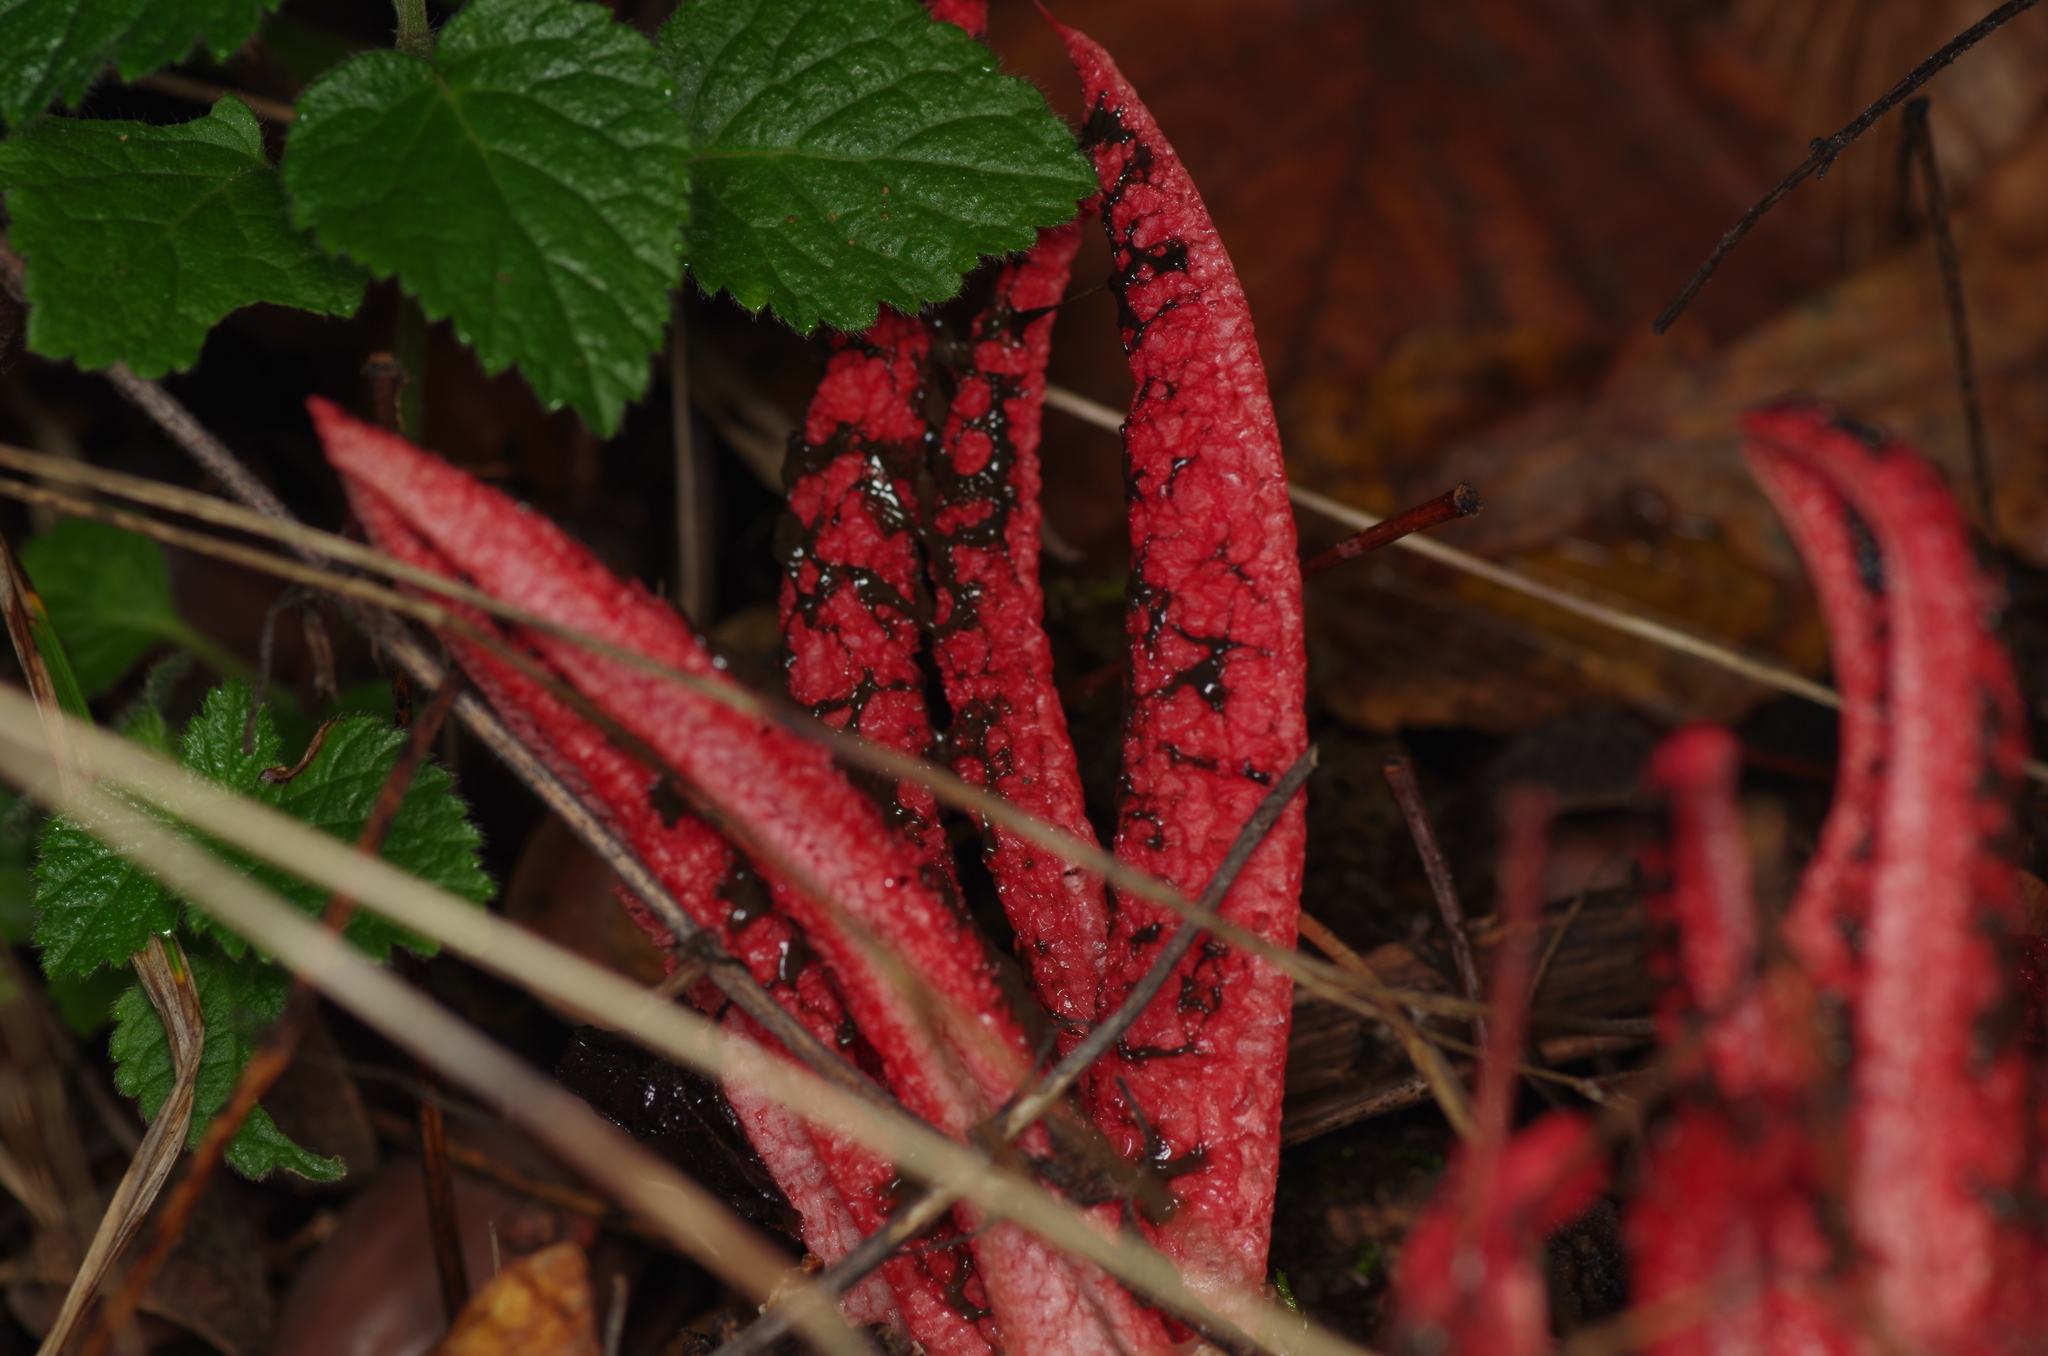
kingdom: Fungi
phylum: Basidiomycota
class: Agaricomycetes
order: Phallales
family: Phallaceae
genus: Clathrus
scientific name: Clathrus archeri
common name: Devil's fingers
